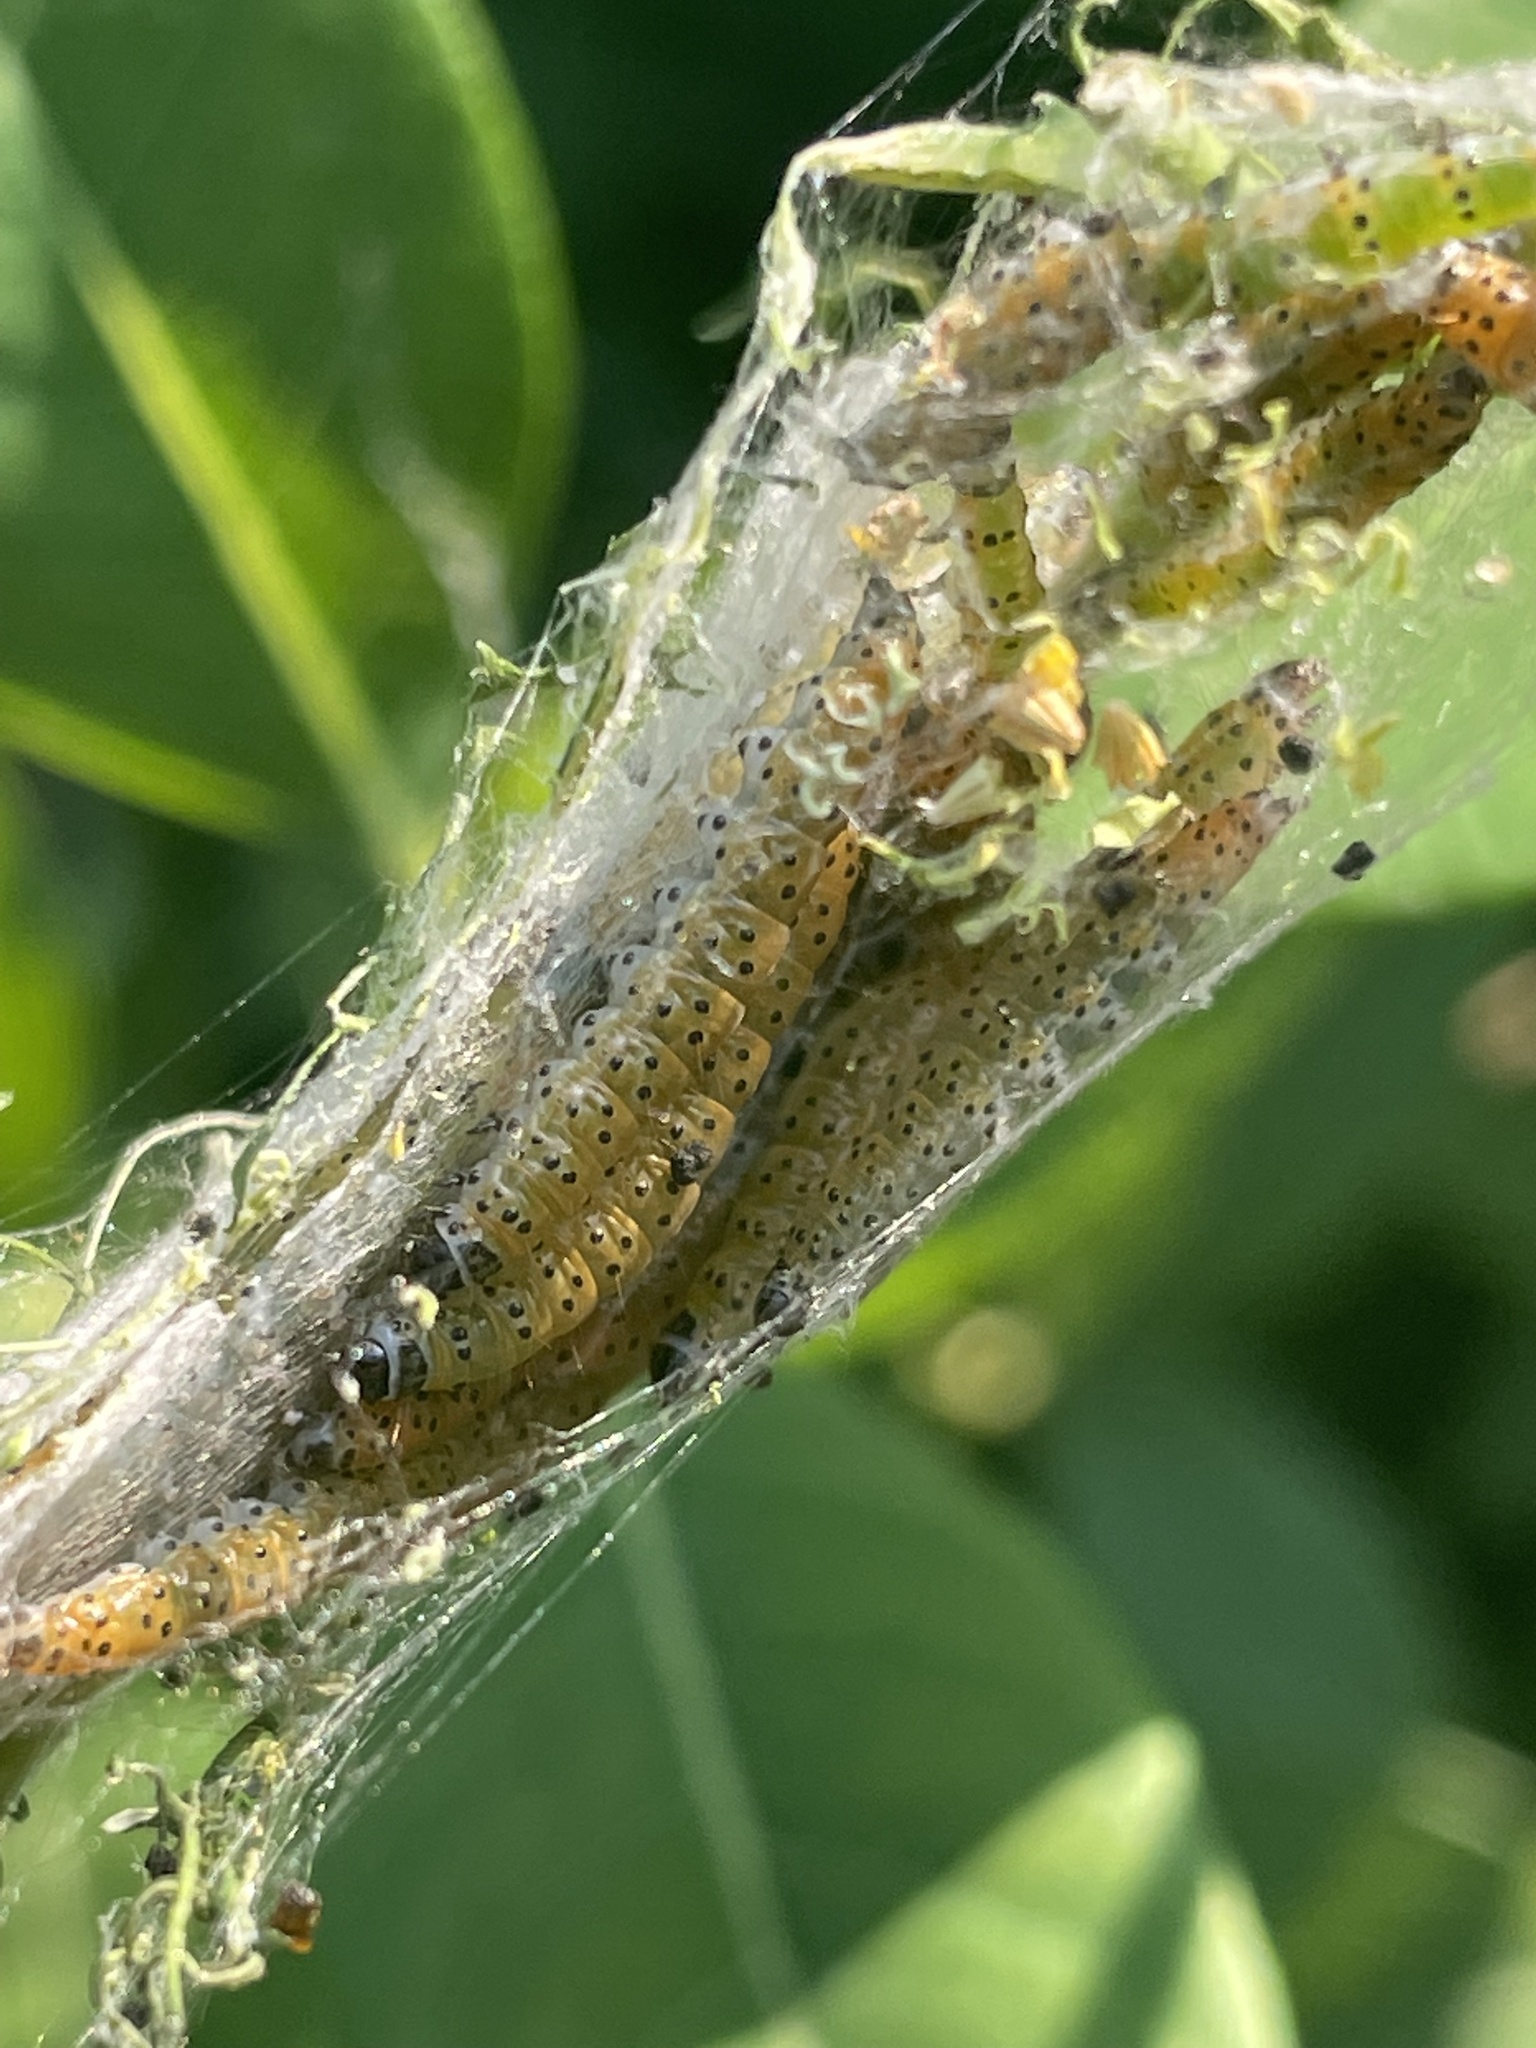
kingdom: Animalia
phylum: Arthropoda
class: Insecta
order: Lepidoptera
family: Crambidae
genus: Saucrobotys
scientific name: Saucrobotys futilalis
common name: Dogbane saucrobotys moth
